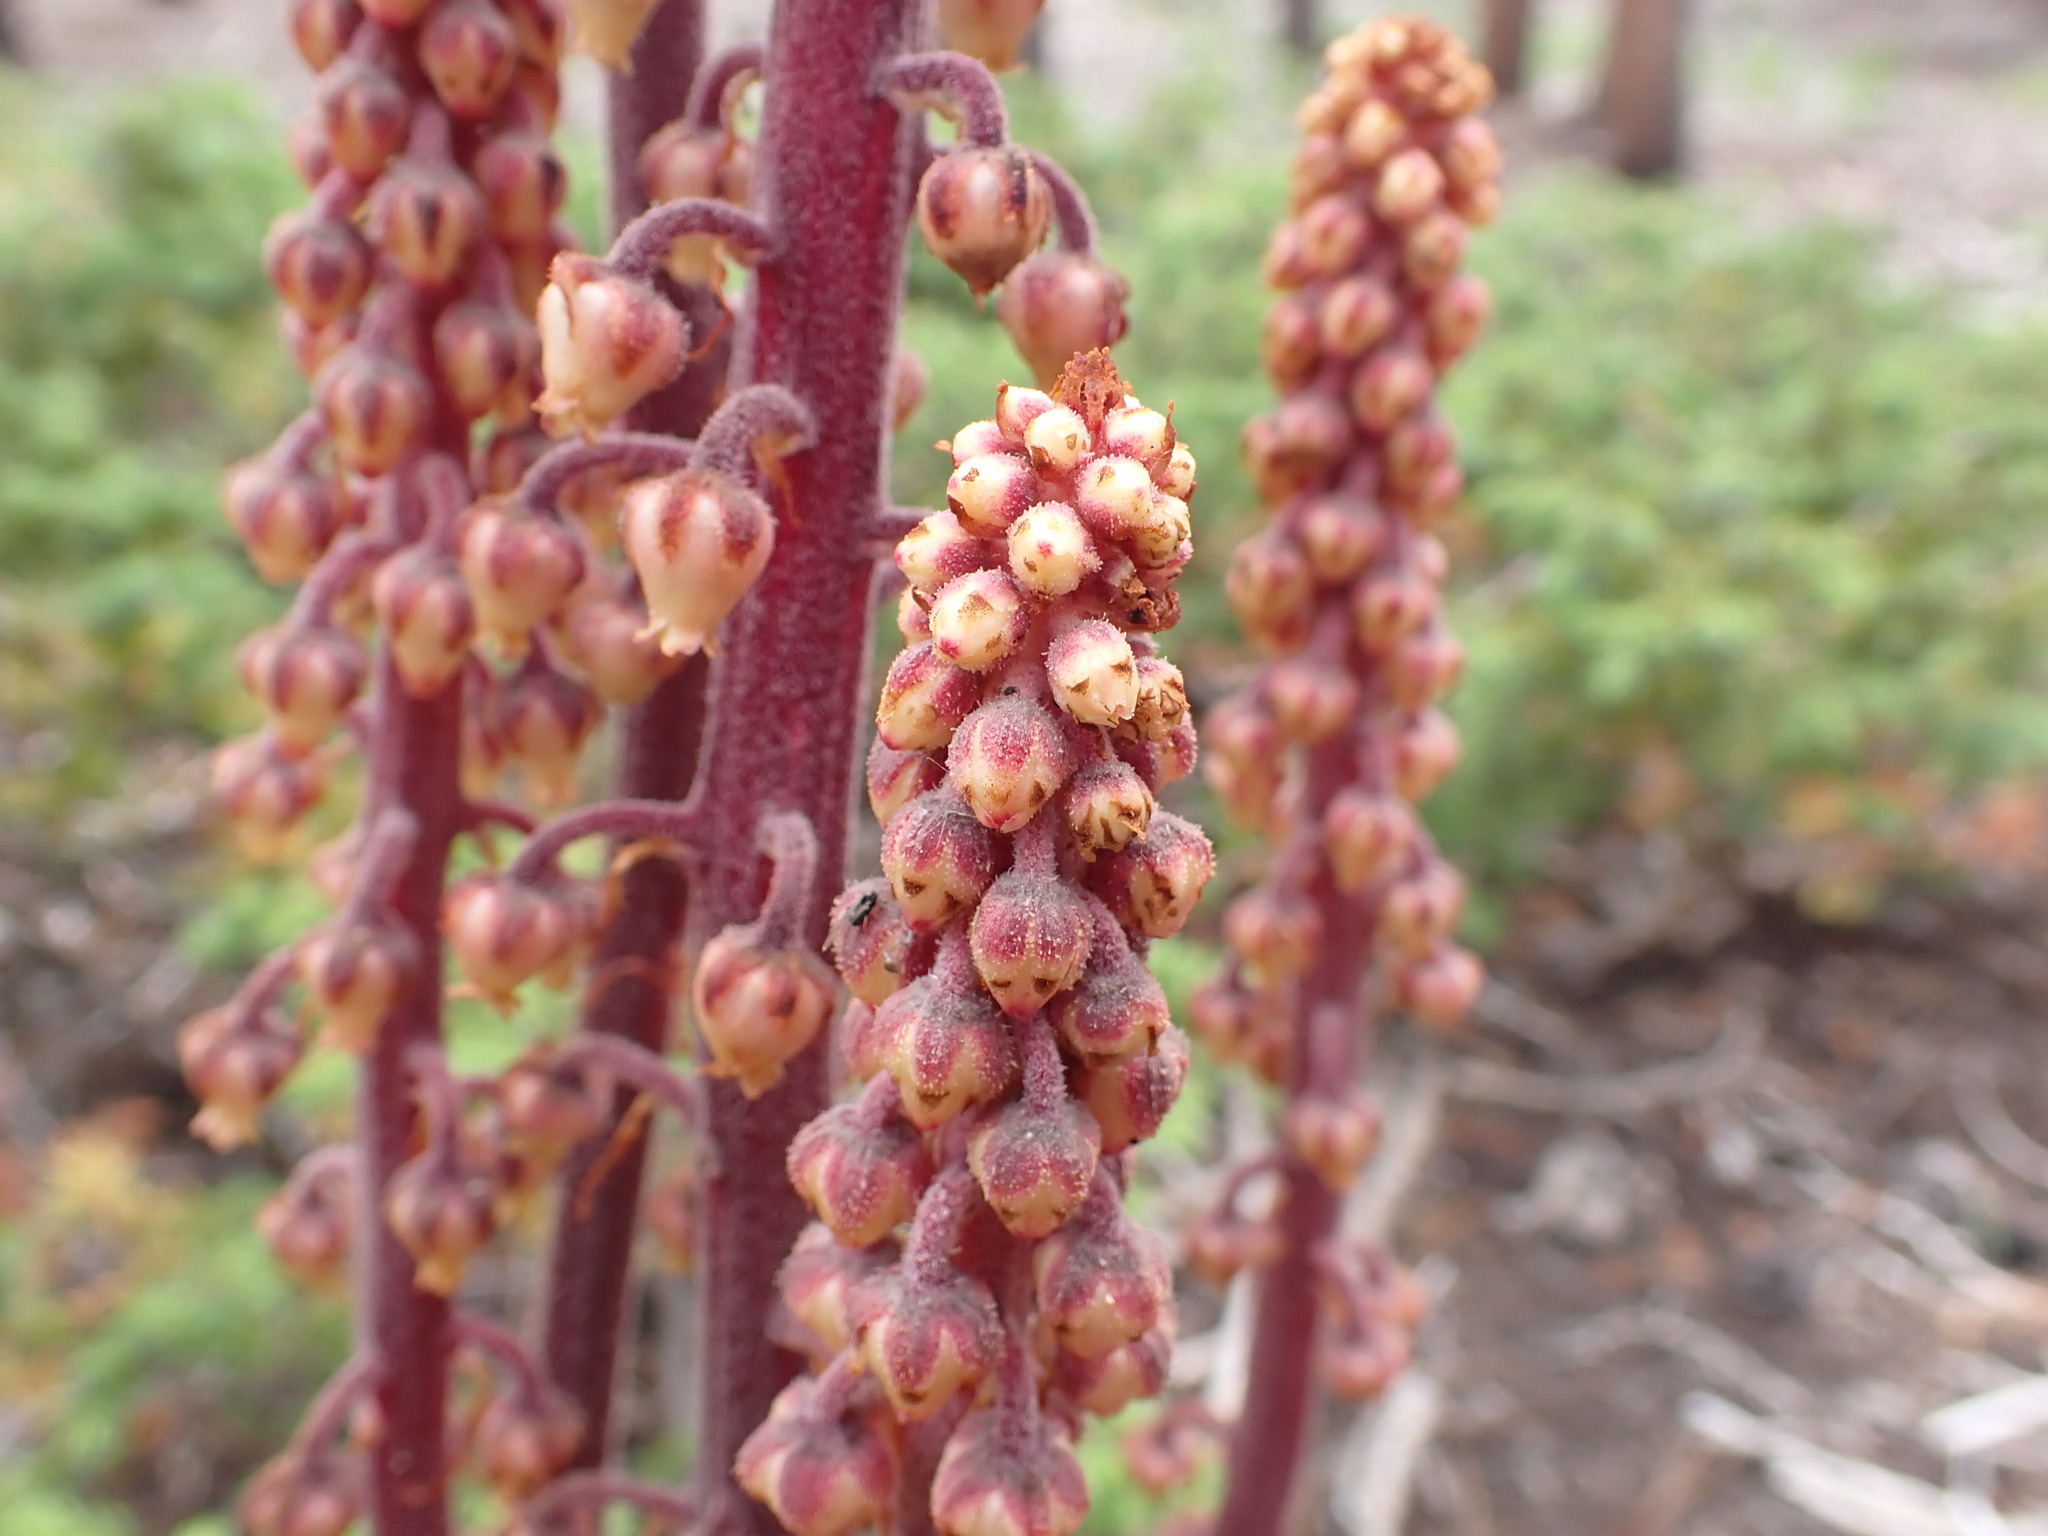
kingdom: Plantae
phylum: Tracheophyta
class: Magnoliopsida
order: Ericales
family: Ericaceae
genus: Pterospora
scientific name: Pterospora andromedea
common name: Giant bird's-nest
